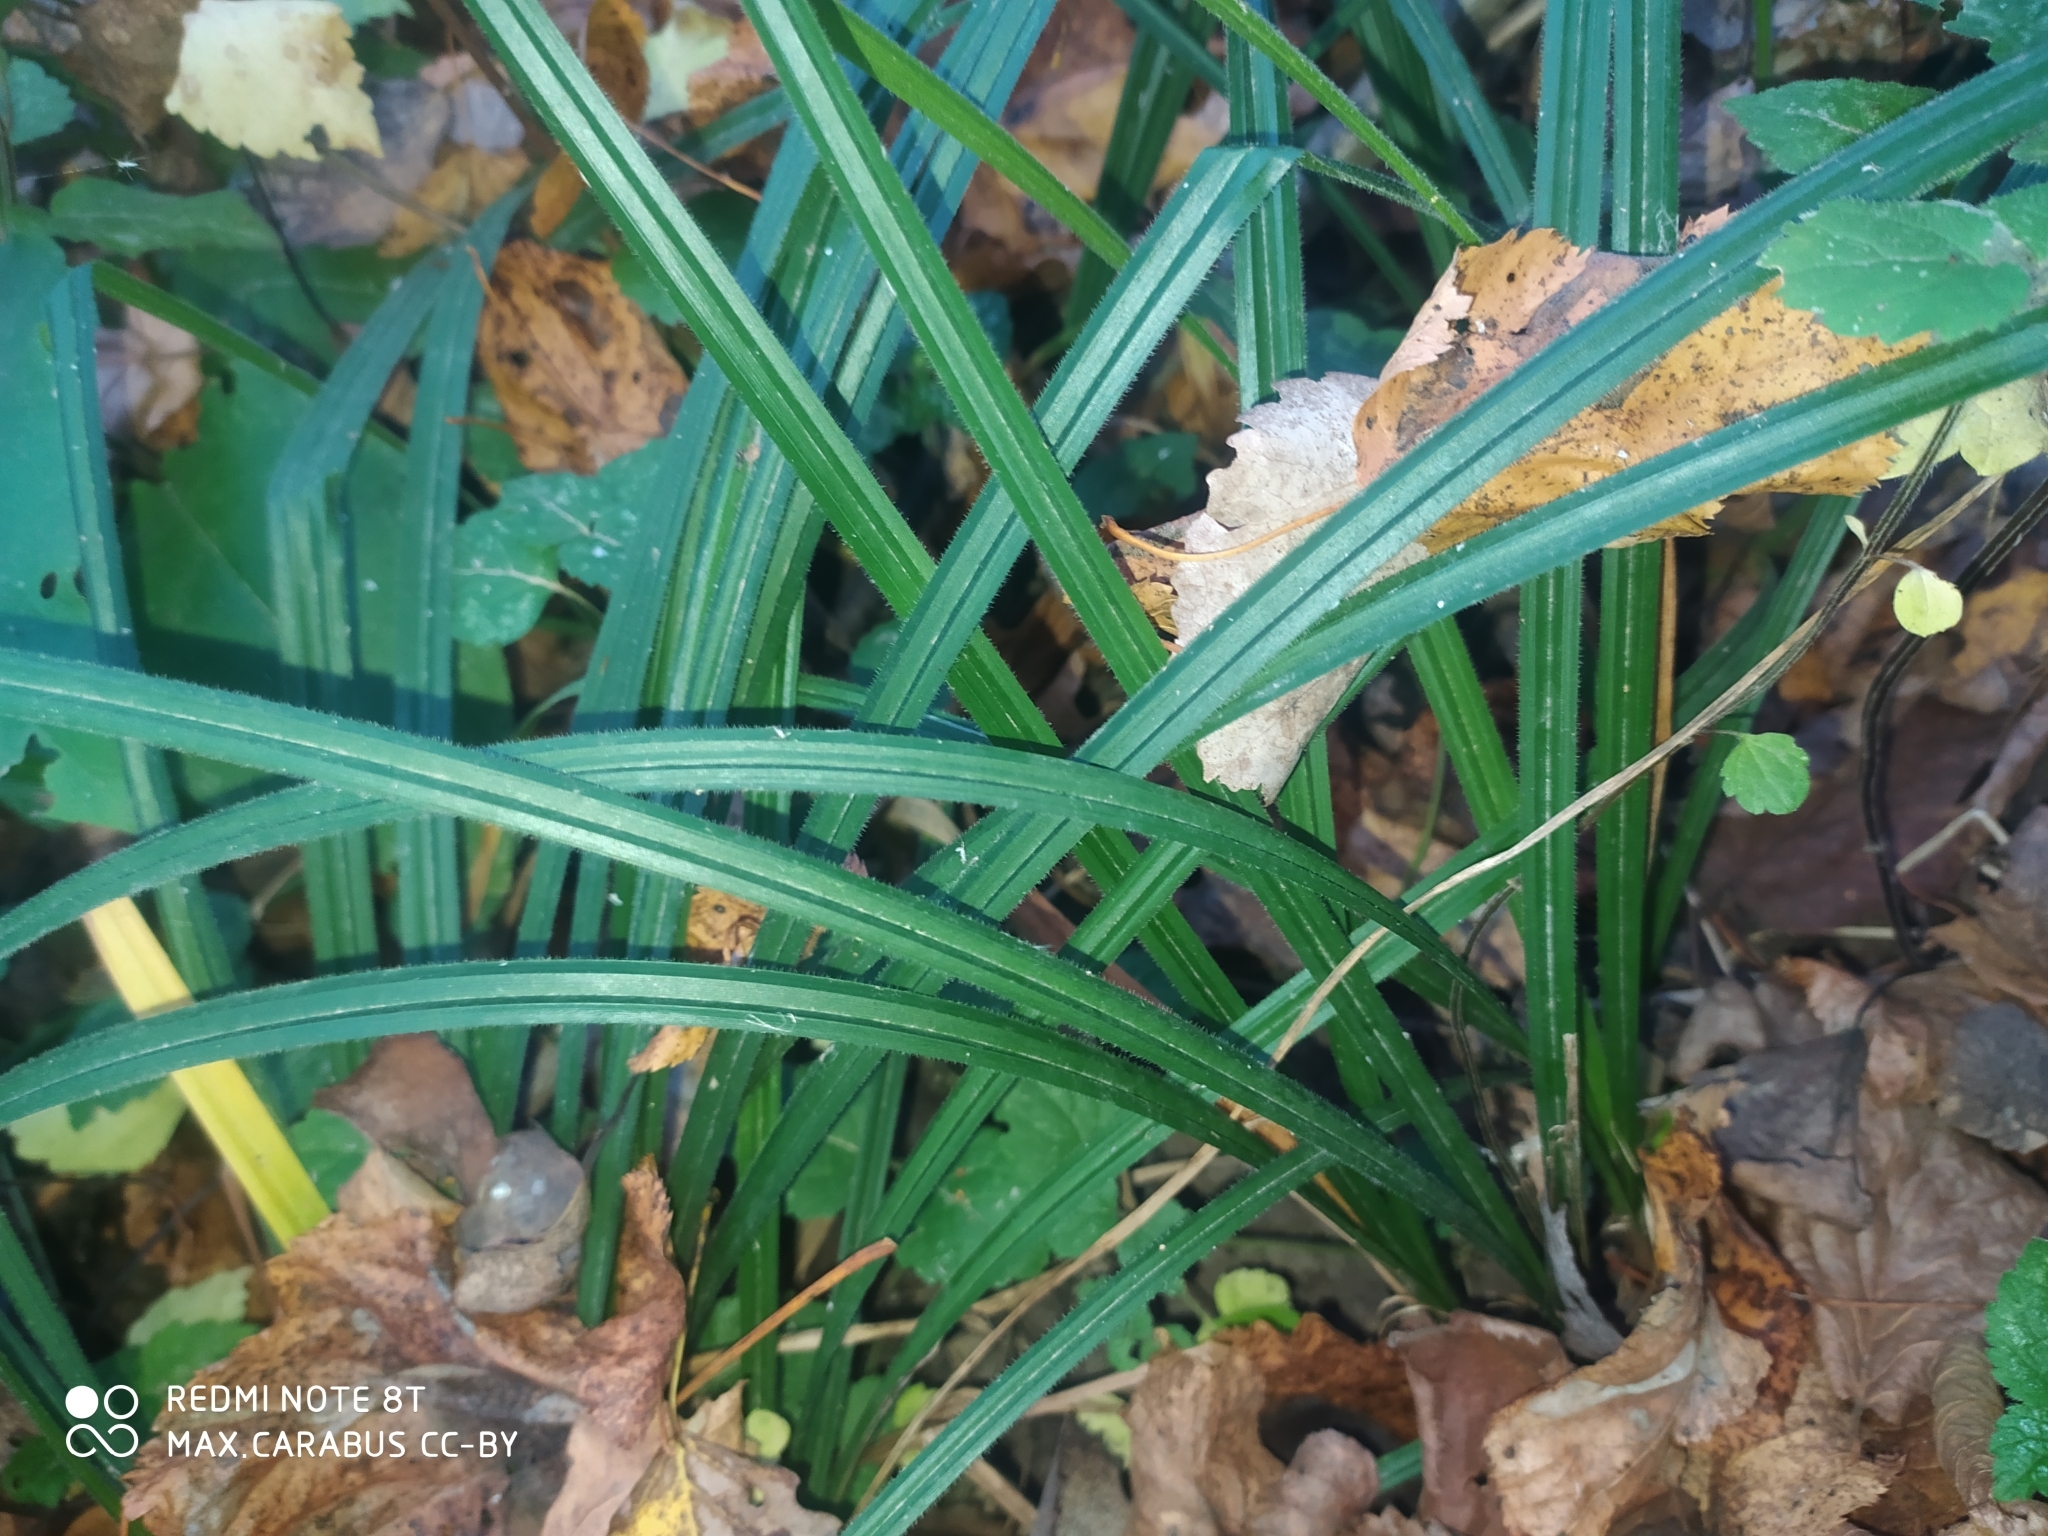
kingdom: Plantae
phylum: Tracheophyta
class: Liliopsida
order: Poales
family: Cyperaceae
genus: Carex
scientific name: Carex pilosa
